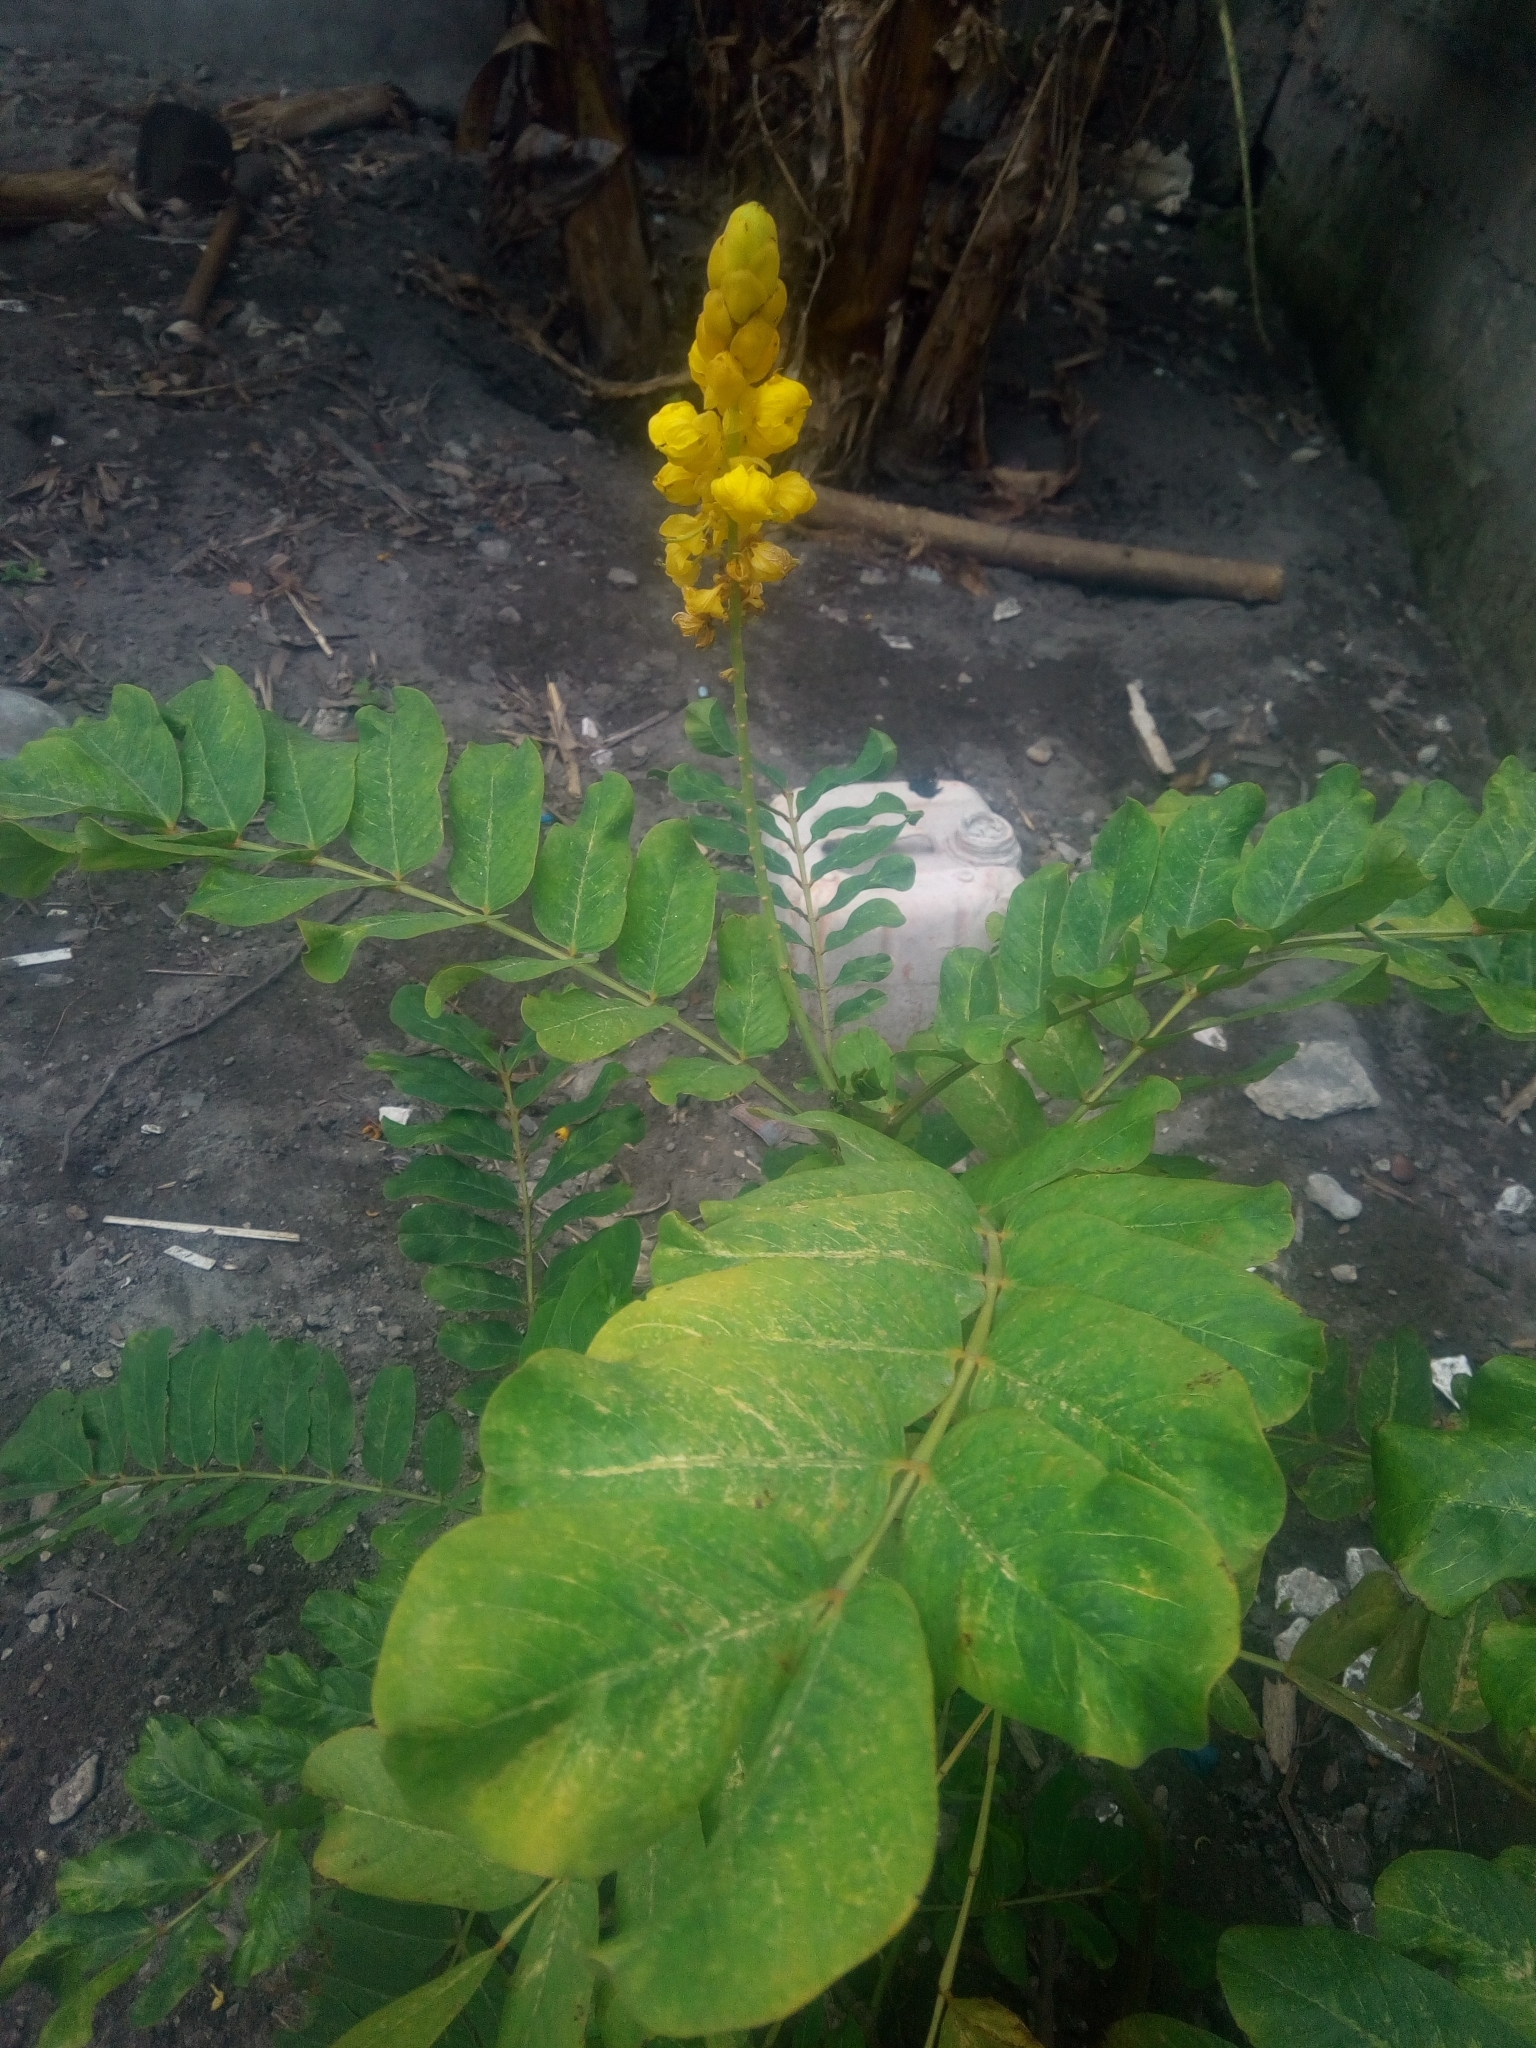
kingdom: Plantae
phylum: Tracheophyta
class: Magnoliopsida
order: Fabales
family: Fabaceae
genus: Senna
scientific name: Senna alata
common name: Emperor's candlesticks
